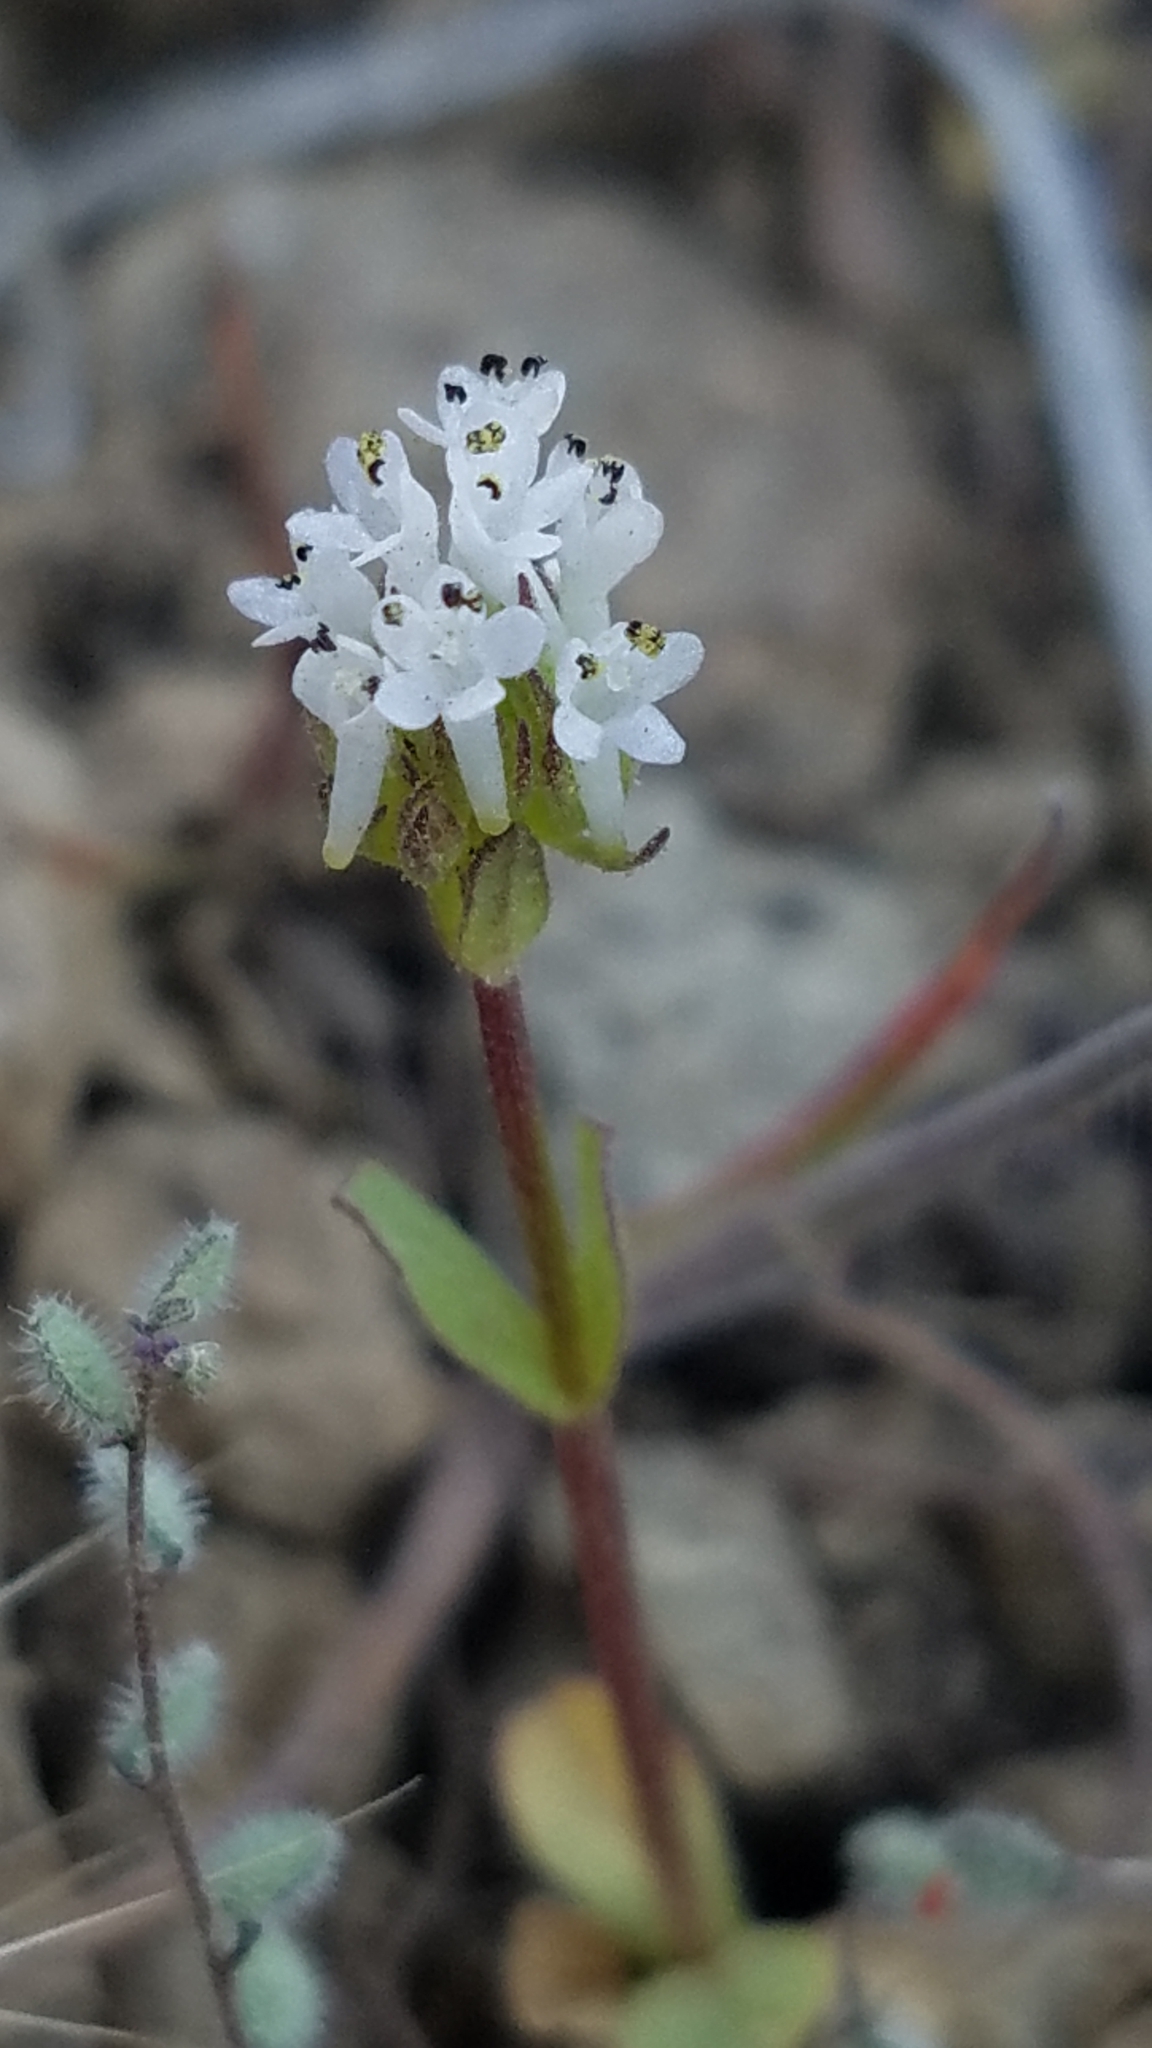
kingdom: Plantae
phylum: Tracheophyta
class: Magnoliopsida
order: Dipsacales
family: Caprifoliaceae
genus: Plectritis
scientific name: Plectritis macroptera
